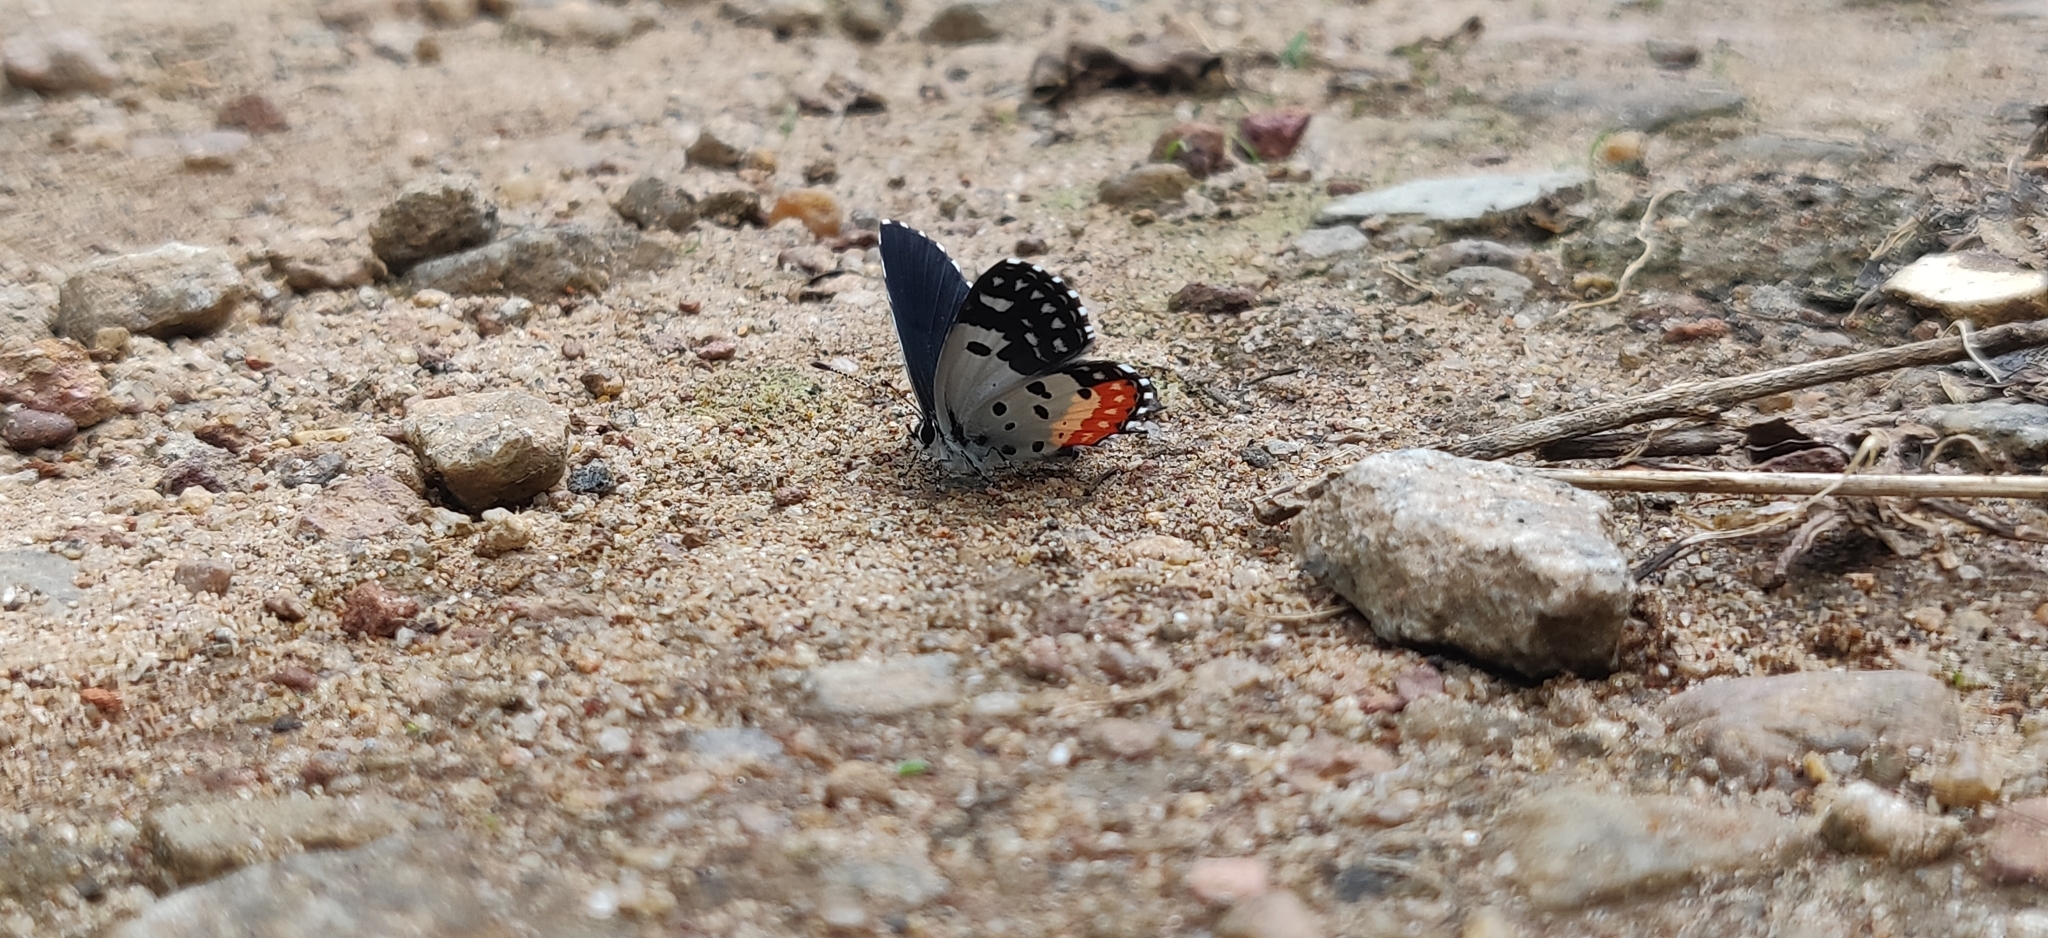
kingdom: Animalia
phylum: Arthropoda
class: Insecta
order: Lepidoptera
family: Lycaenidae
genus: Talicada
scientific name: Talicada nyseus
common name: Red pierrot
